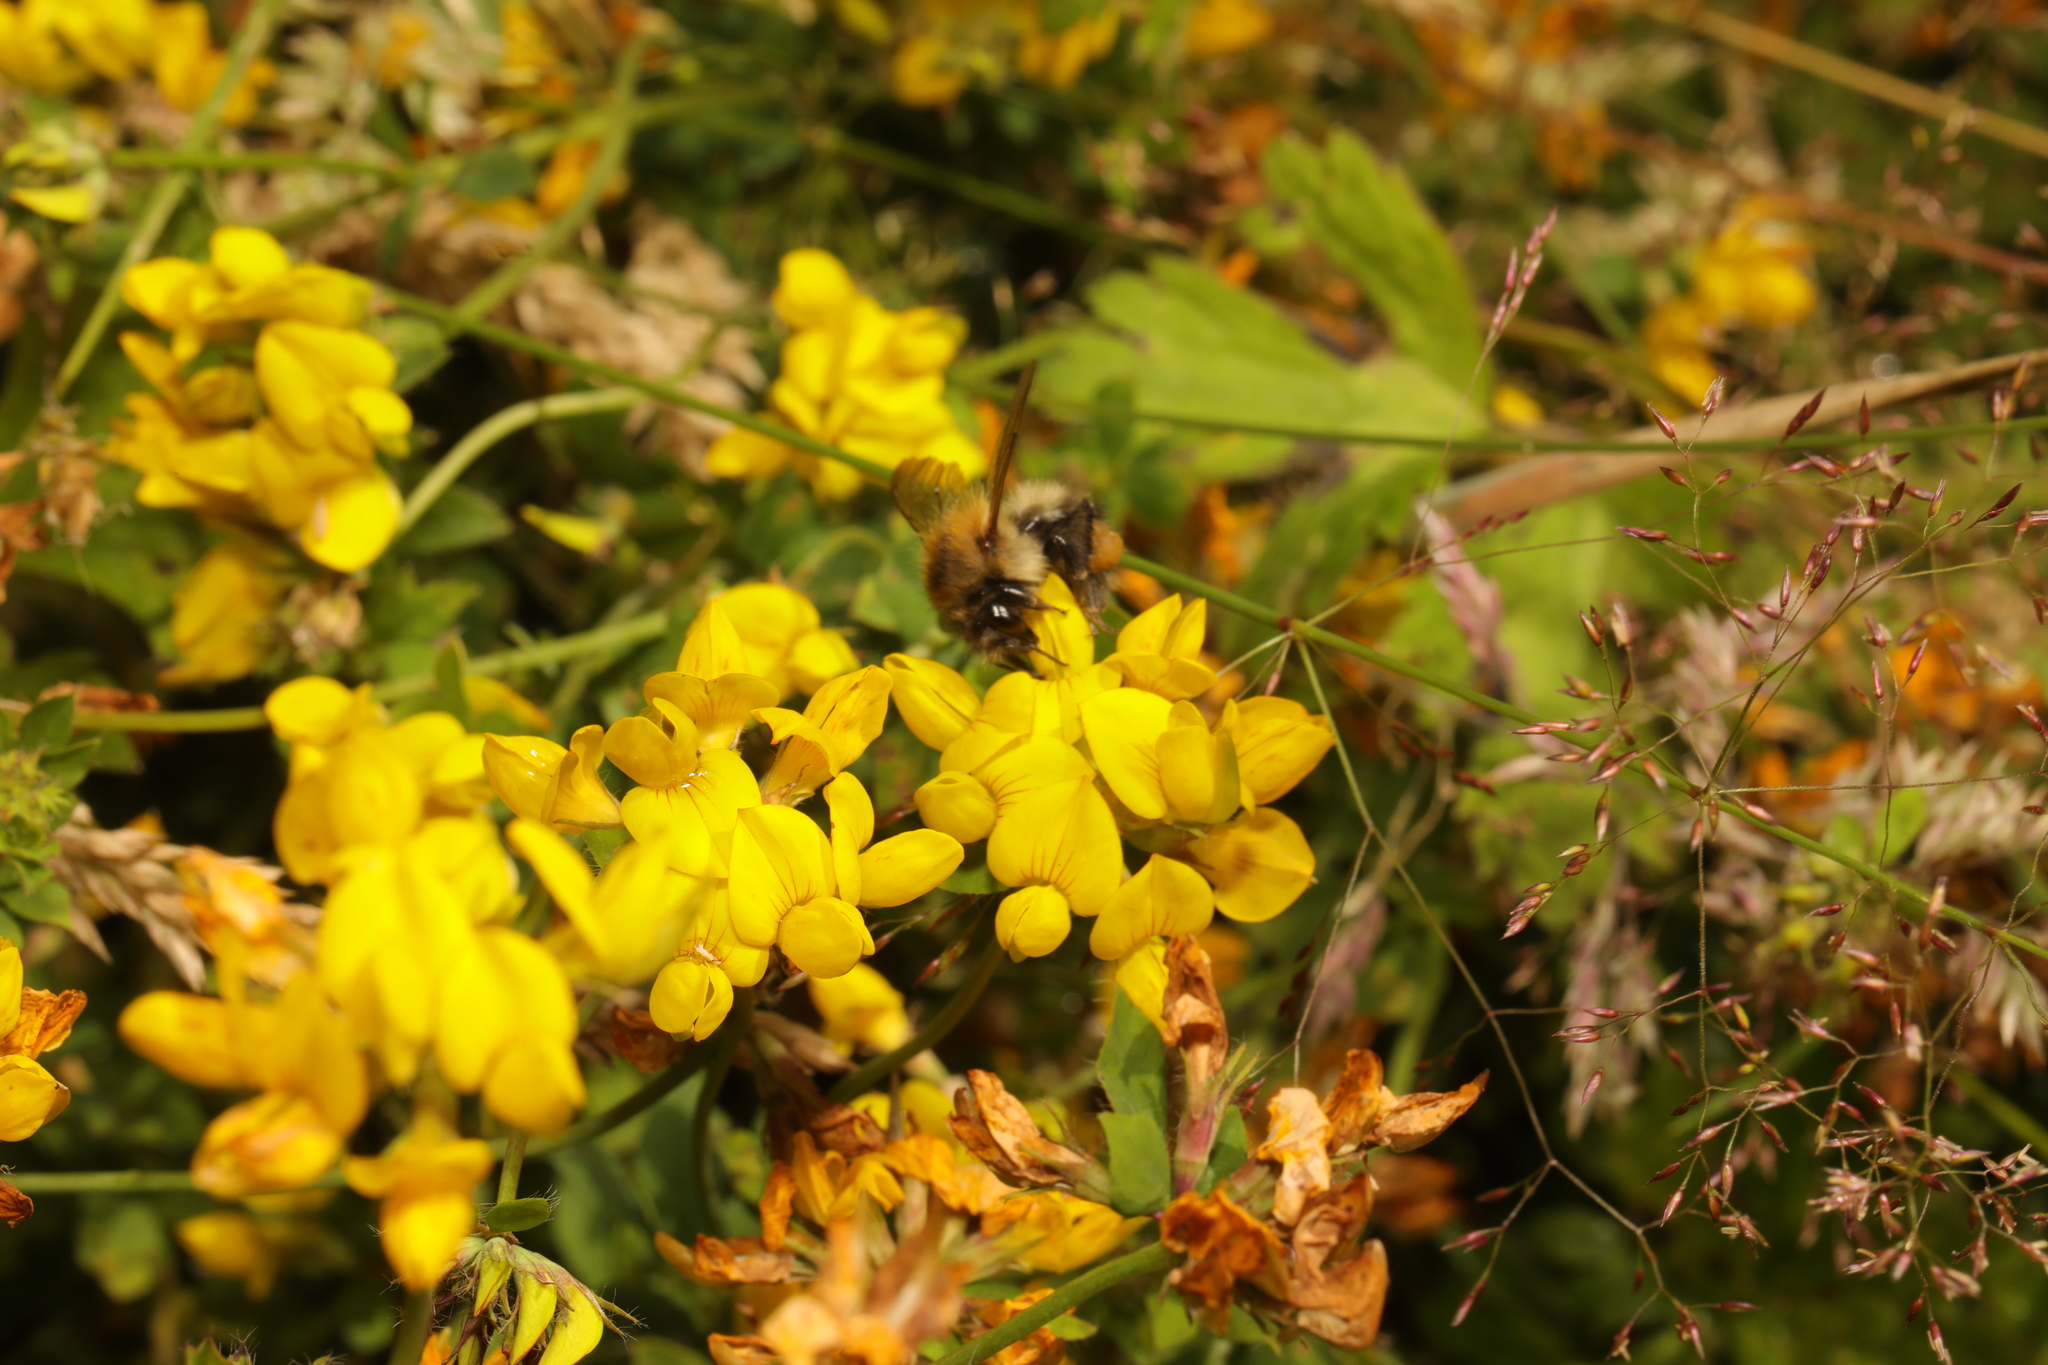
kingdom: Animalia
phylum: Arthropoda
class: Insecta
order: Hymenoptera
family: Apidae
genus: Bombus
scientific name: Bombus pascuorum
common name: Common carder bee
